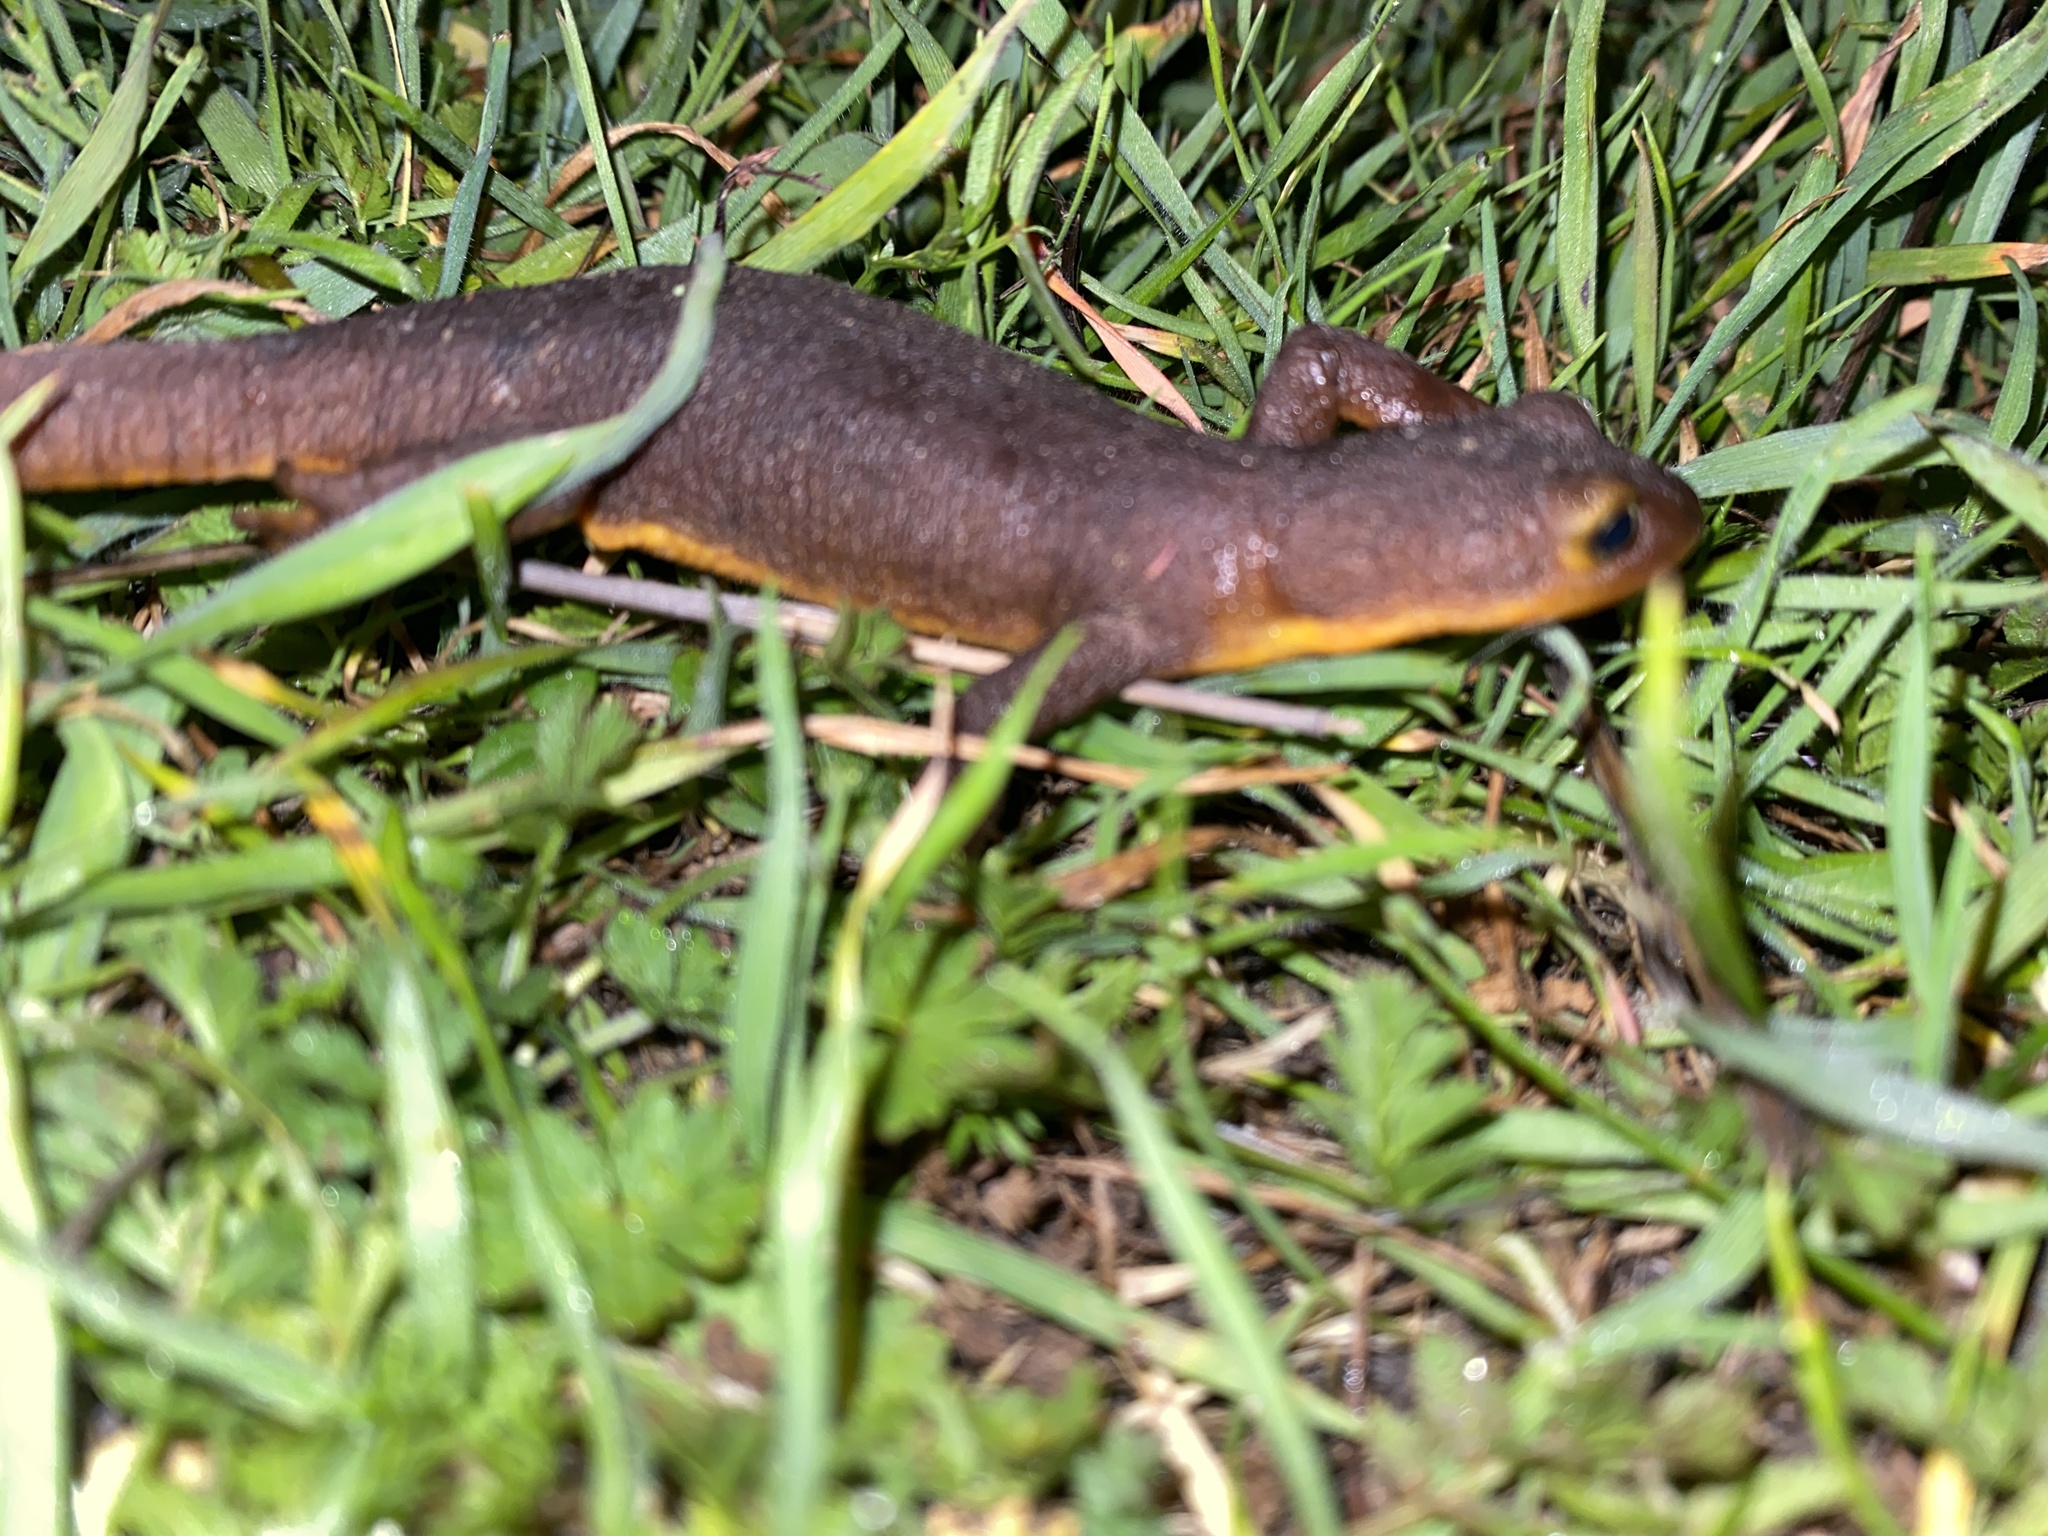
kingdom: Animalia
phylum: Chordata
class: Amphibia
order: Caudata
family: Salamandridae
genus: Taricha
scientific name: Taricha torosa
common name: California newt
